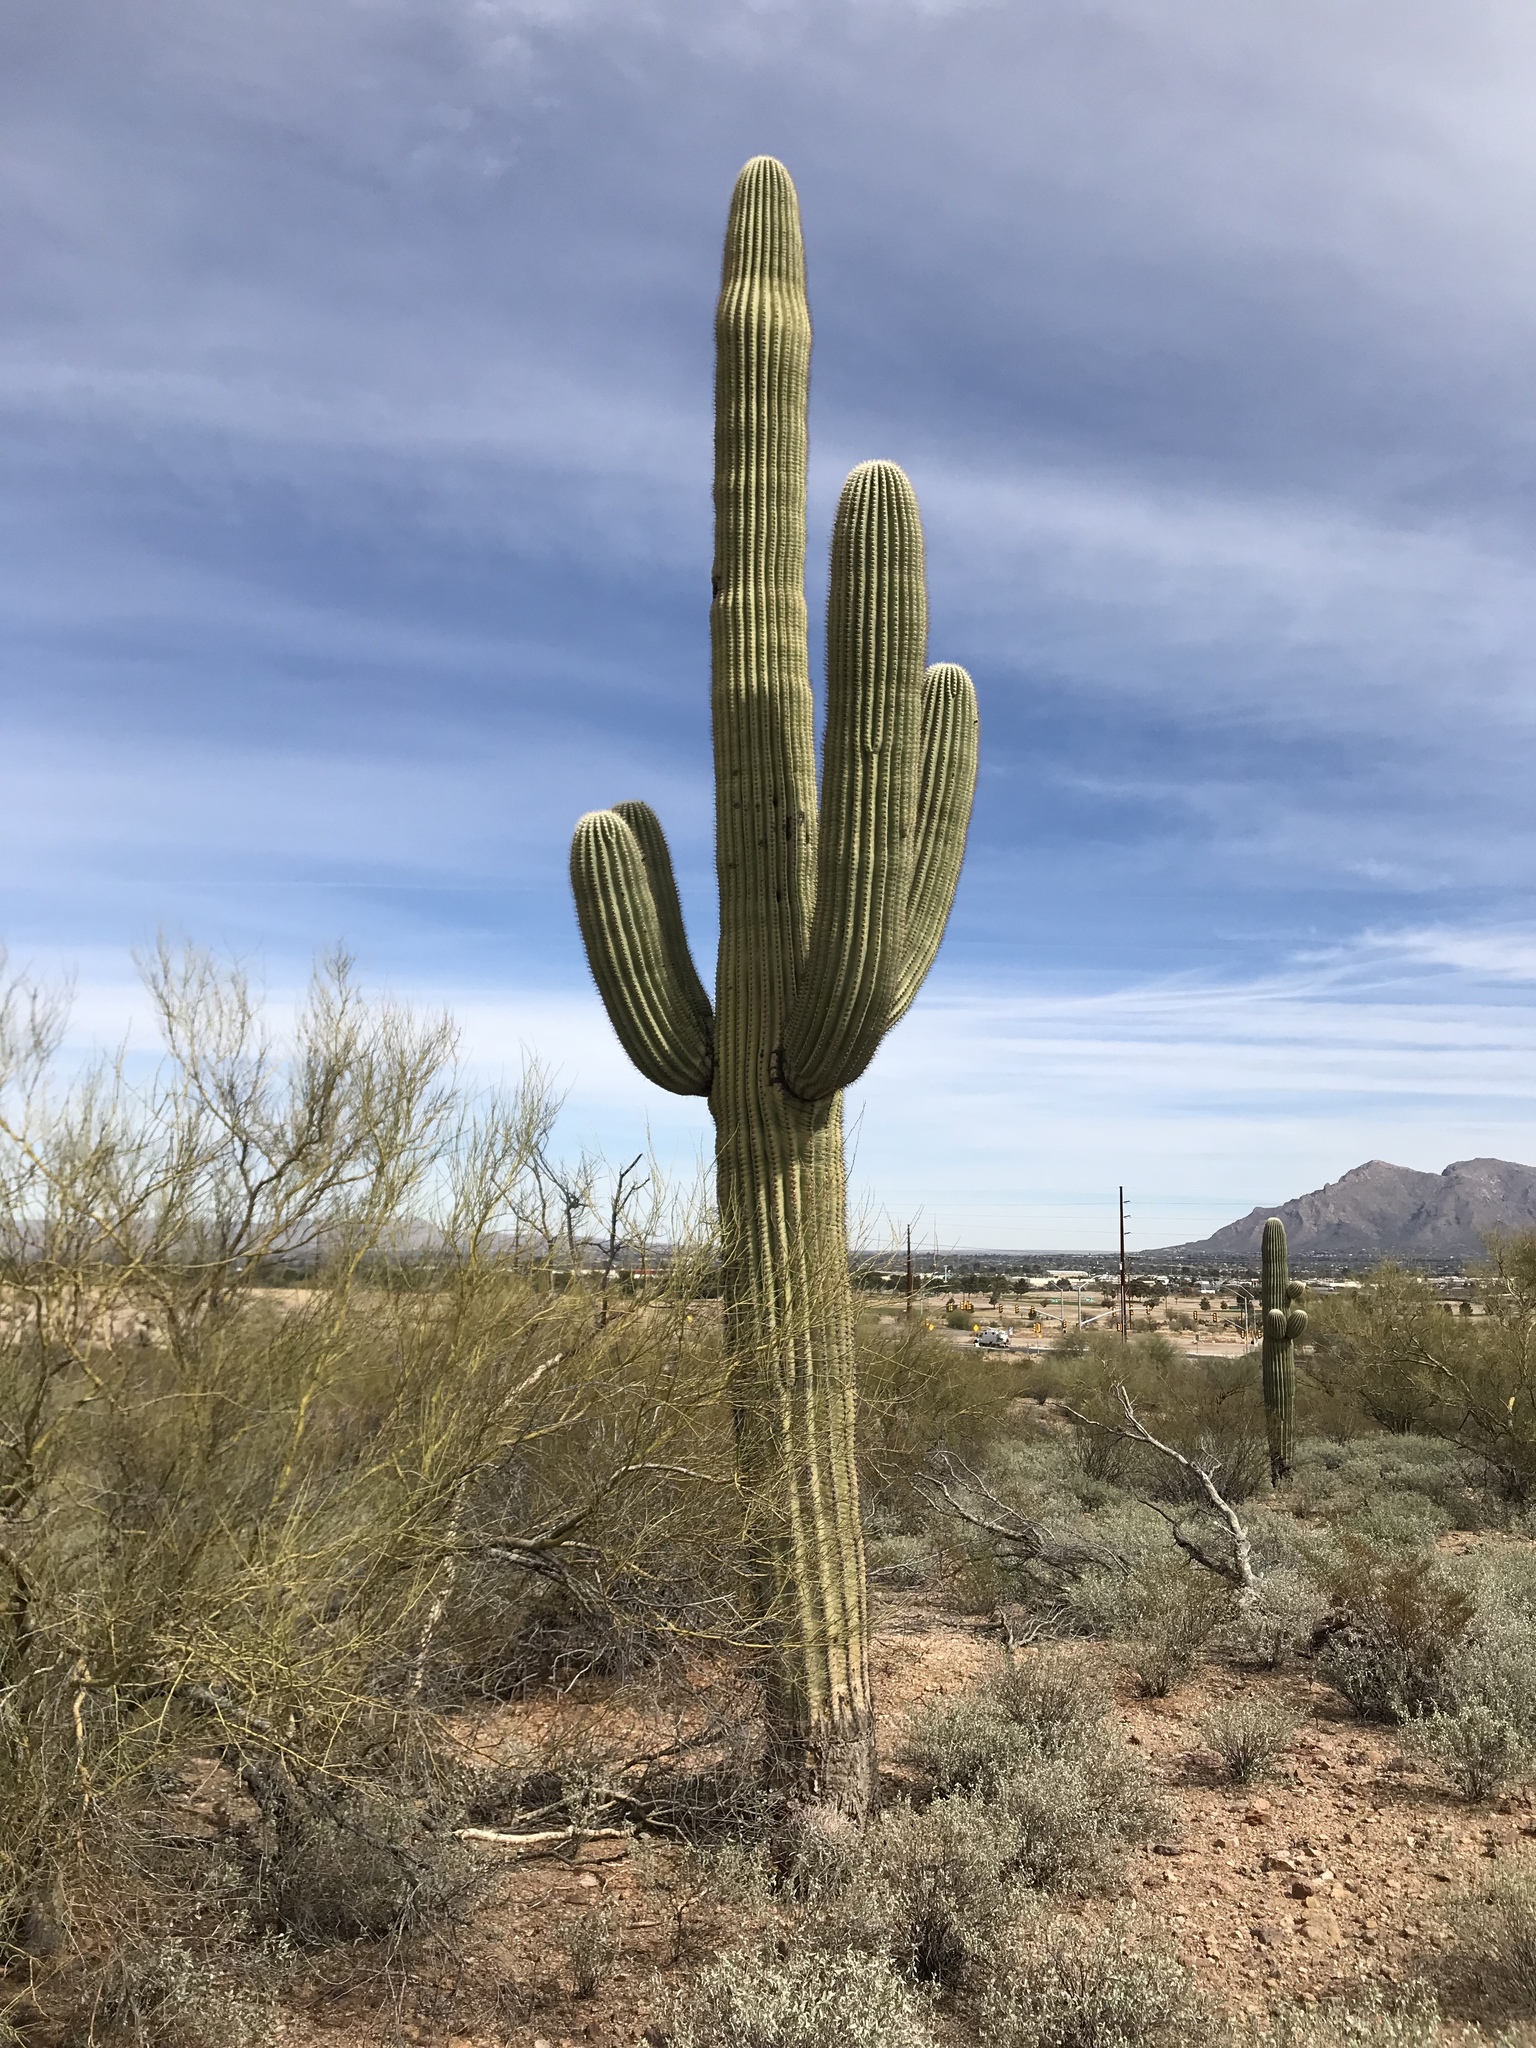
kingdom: Plantae
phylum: Tracheophyta
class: Magnoliopsida
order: Caryophyllales
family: Cactaceae
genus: Carnegiea
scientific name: Carnegiea gigantea
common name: Saguaro
